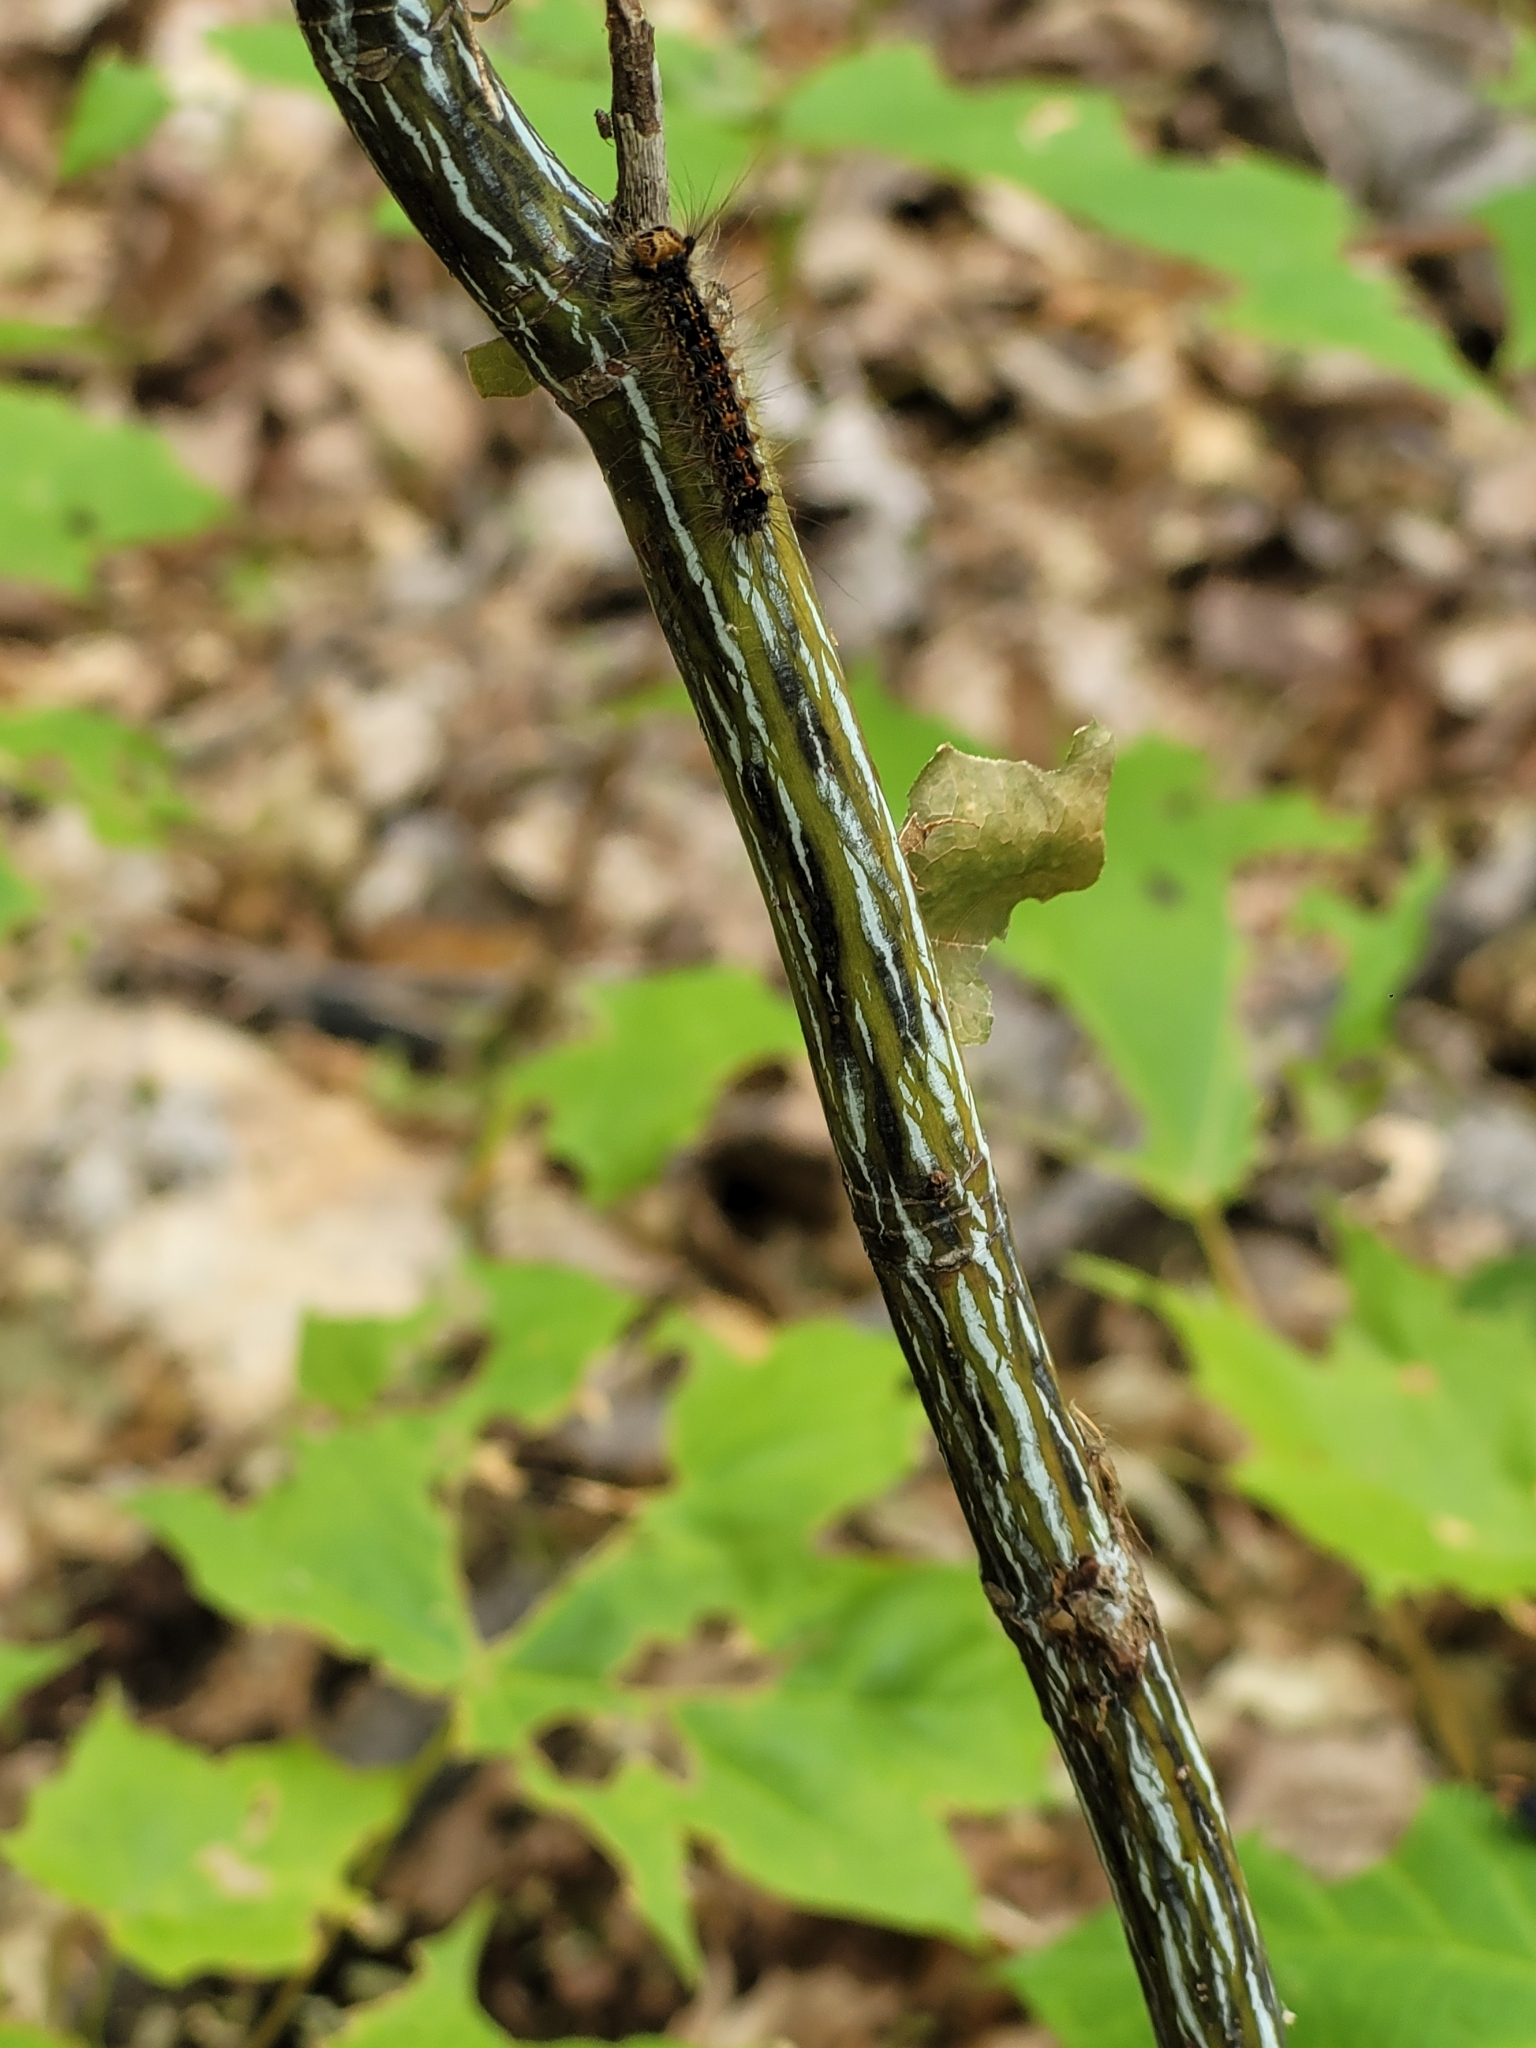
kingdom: Plantae
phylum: Tracheophyta
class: Magnoliopsida
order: Sapindales
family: Sapindaceae
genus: Acer
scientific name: Acer pensylvanicum
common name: Moosewood
